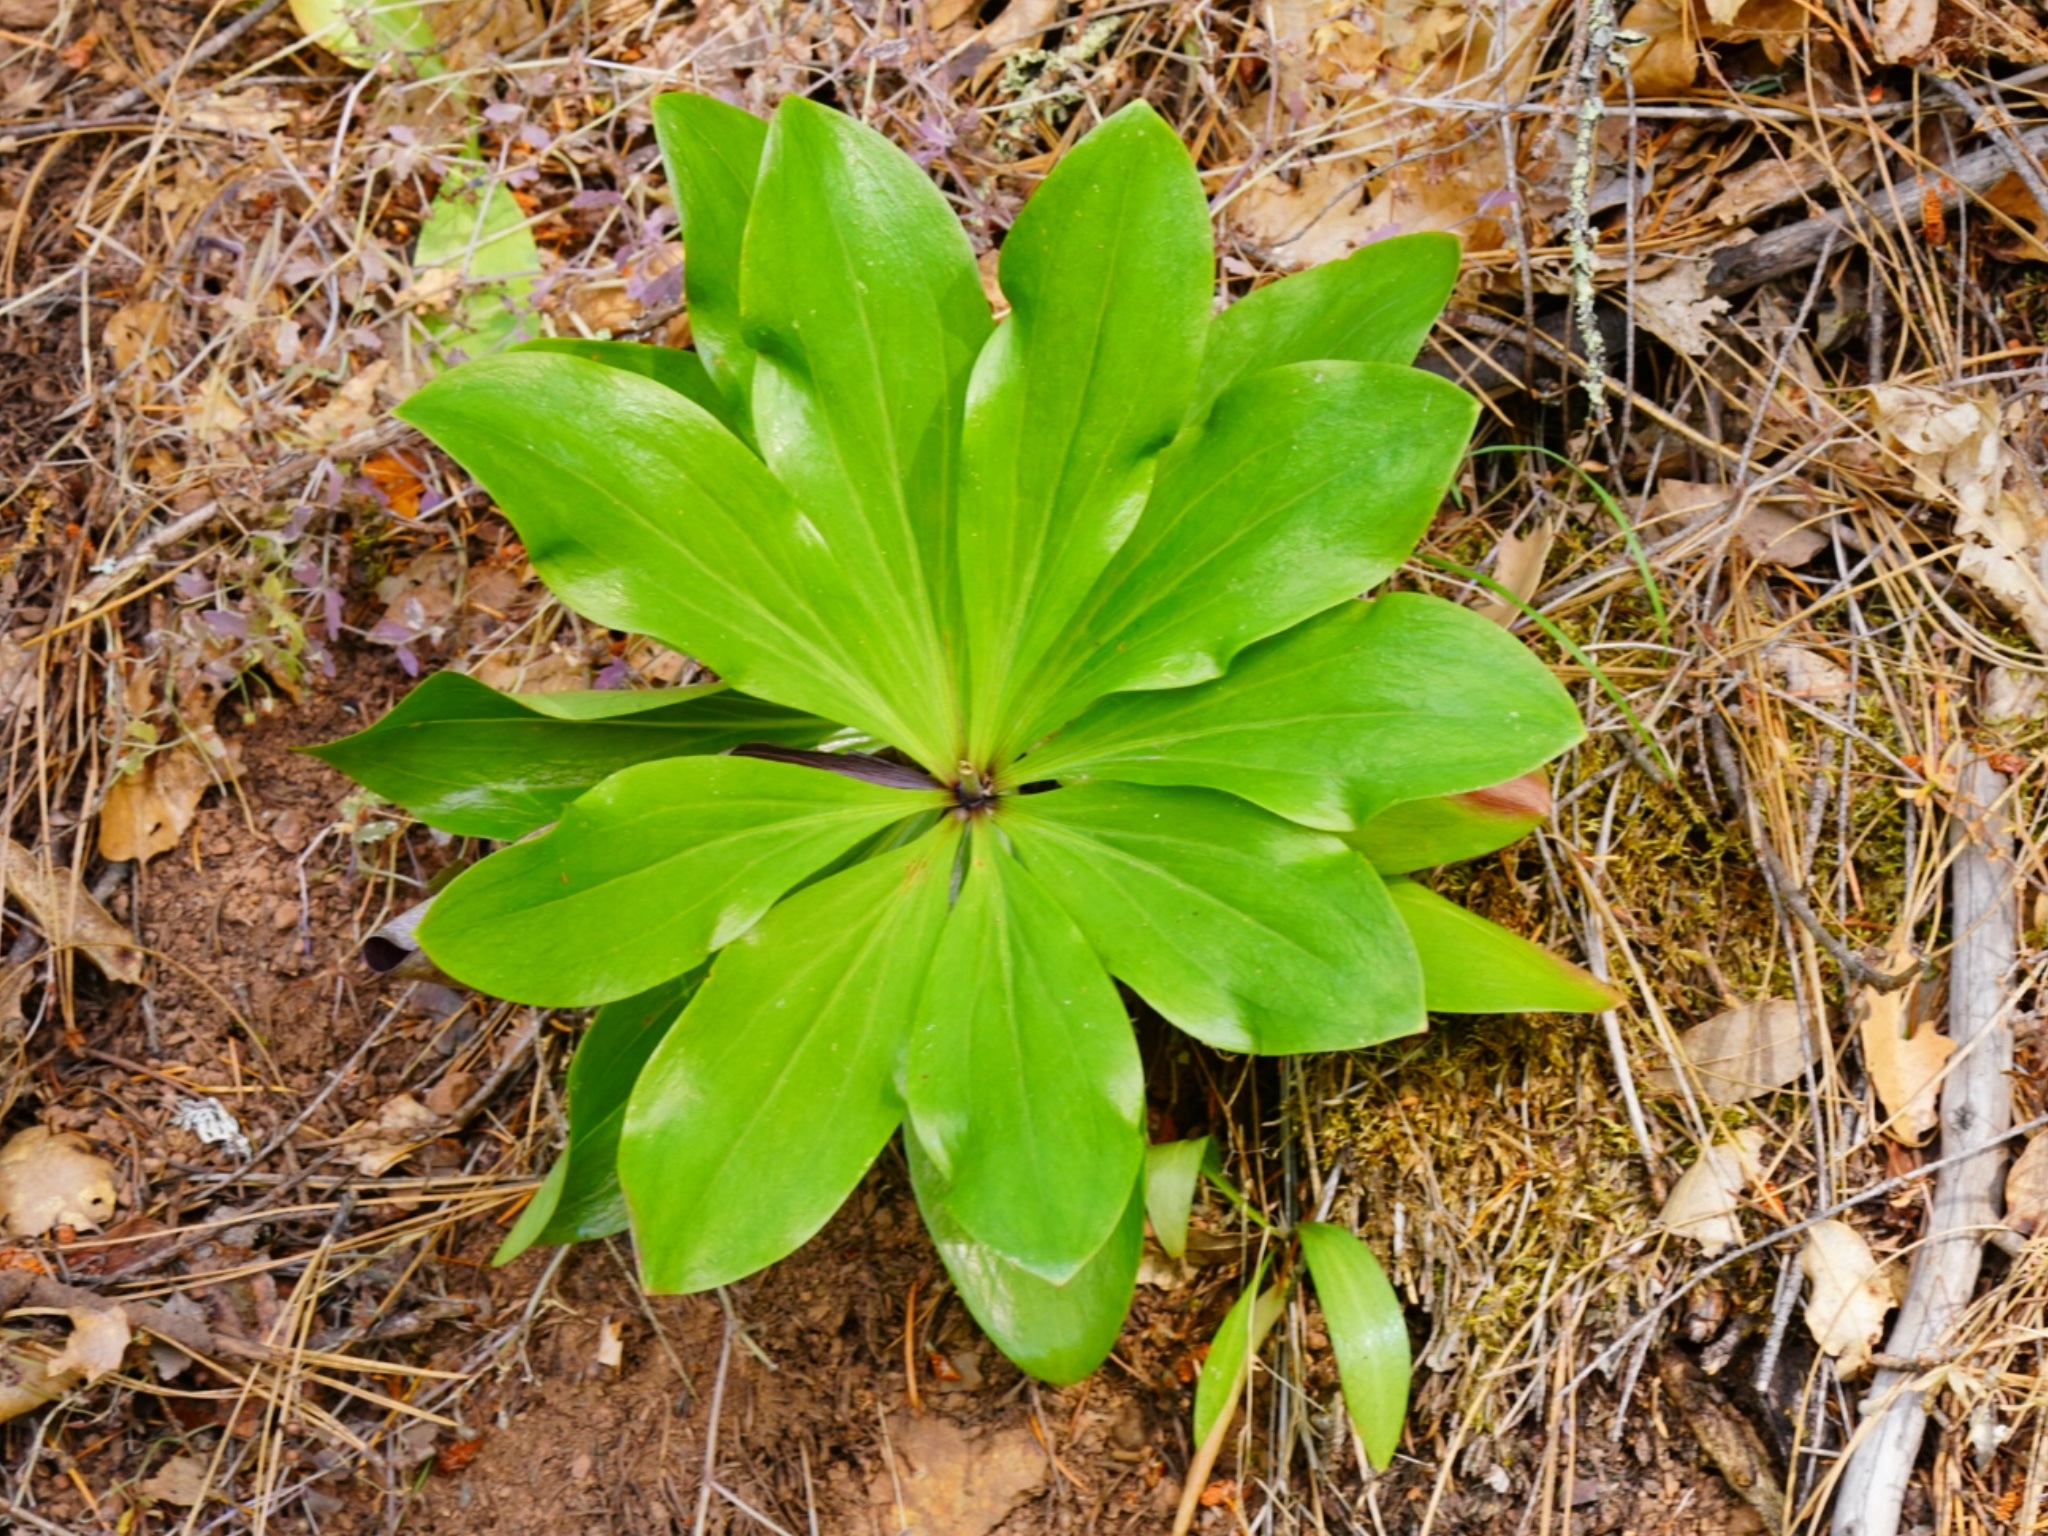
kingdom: Plantae
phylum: Tracheophyta
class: Liliopsida
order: Liliales
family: Liliaceae
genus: Lilium
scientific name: Lilium humboldtii
